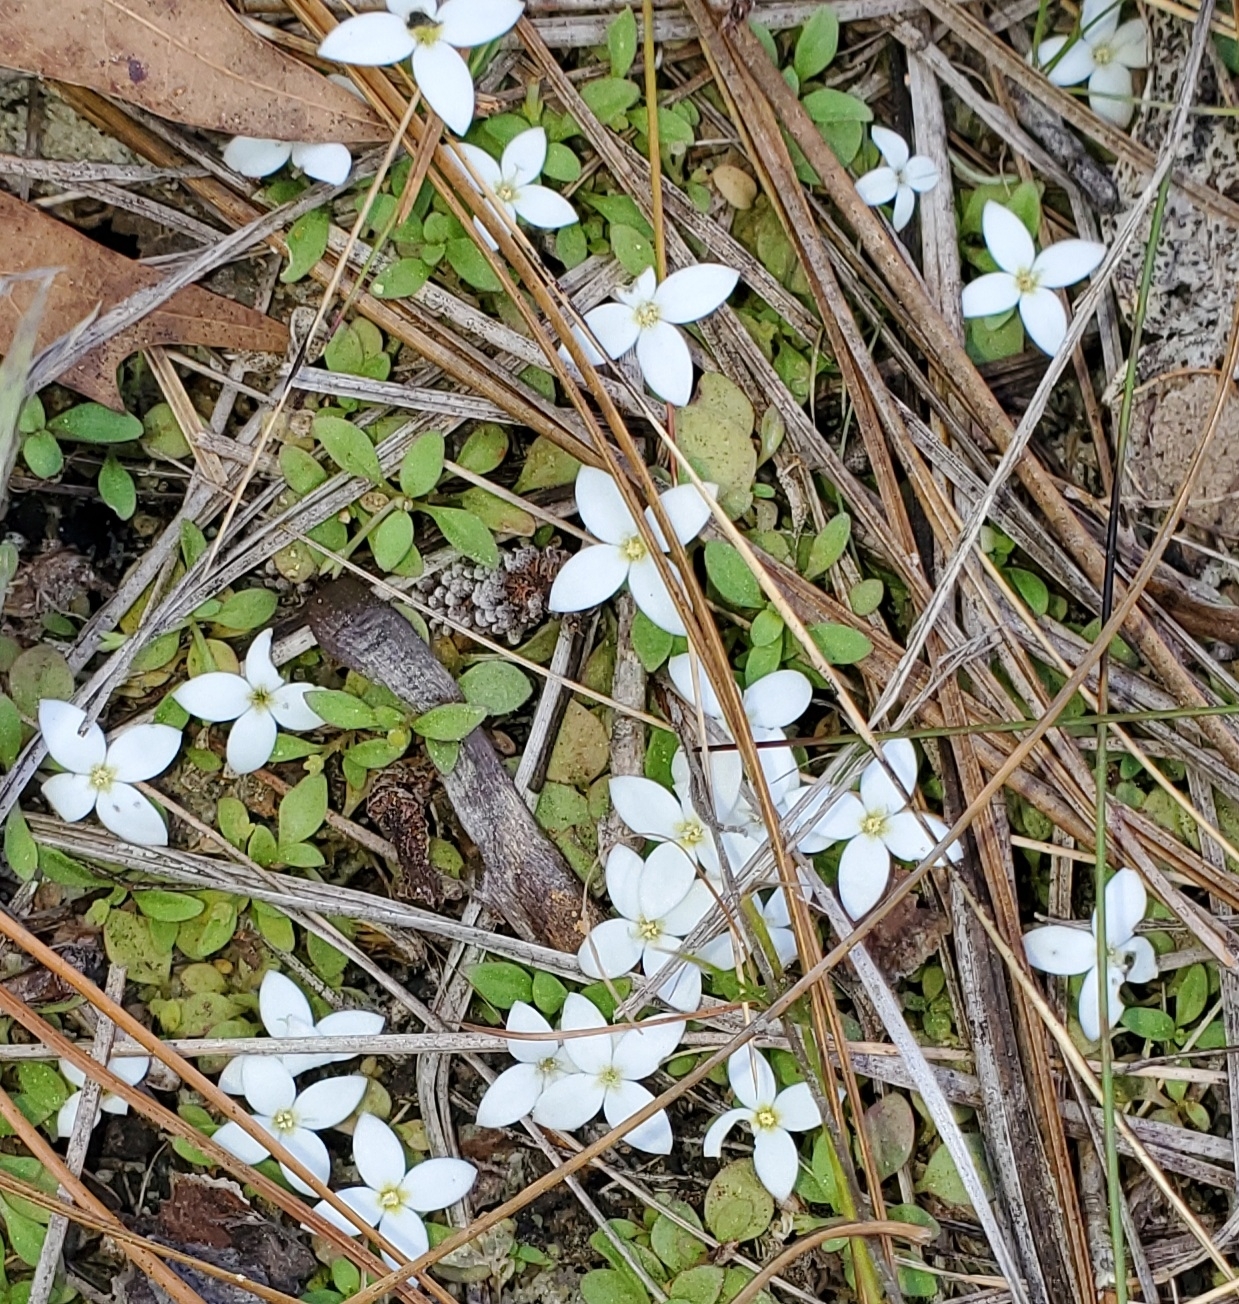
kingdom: Plantae
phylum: Tracheophyta
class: Magnoliopsida
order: Gentianales
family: Rubiaceae
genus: Houstonia
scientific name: Houstonia procumbens
